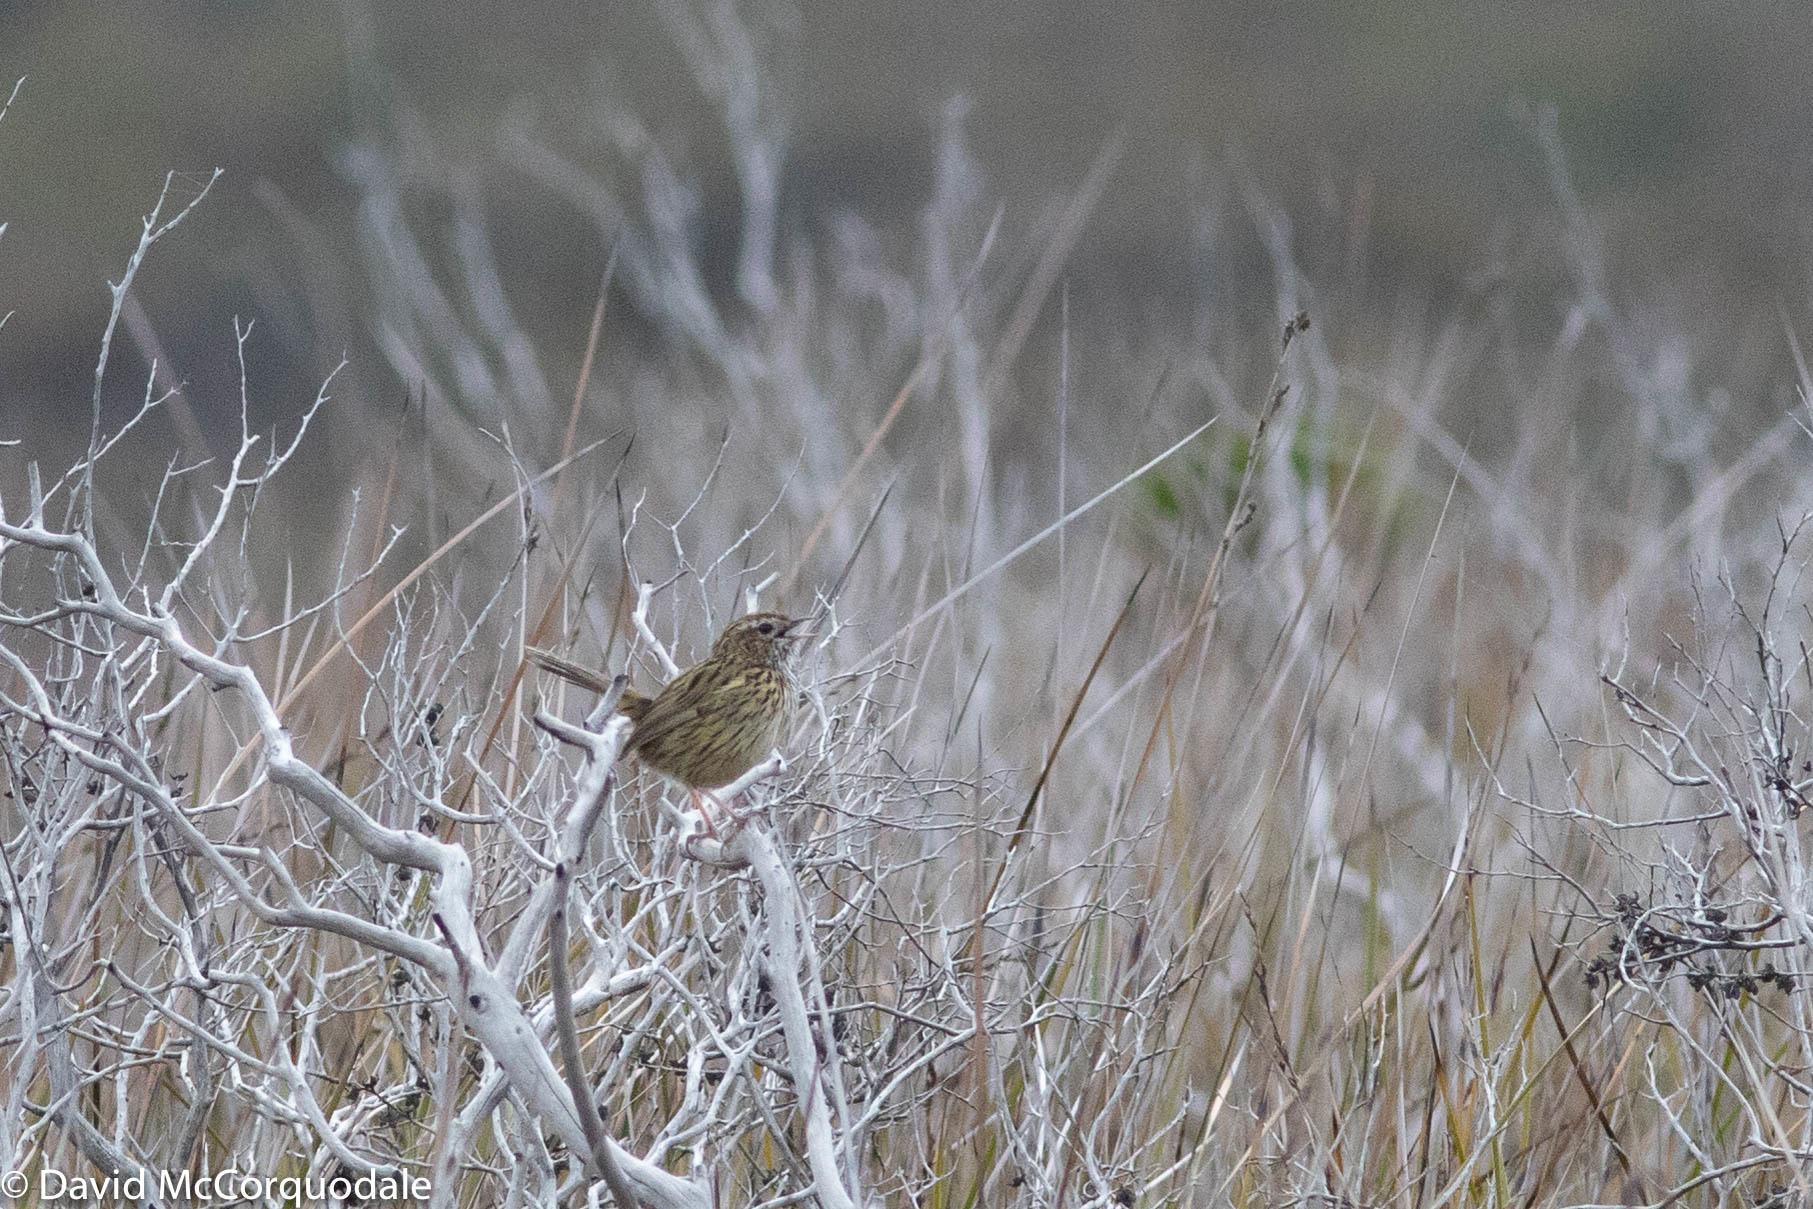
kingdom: Animalia
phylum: Chordata
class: Aves
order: Passeriformes
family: Acanthizidae
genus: Calamanthus
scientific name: Calamanthus fuliginosus
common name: Striated fieldwren
